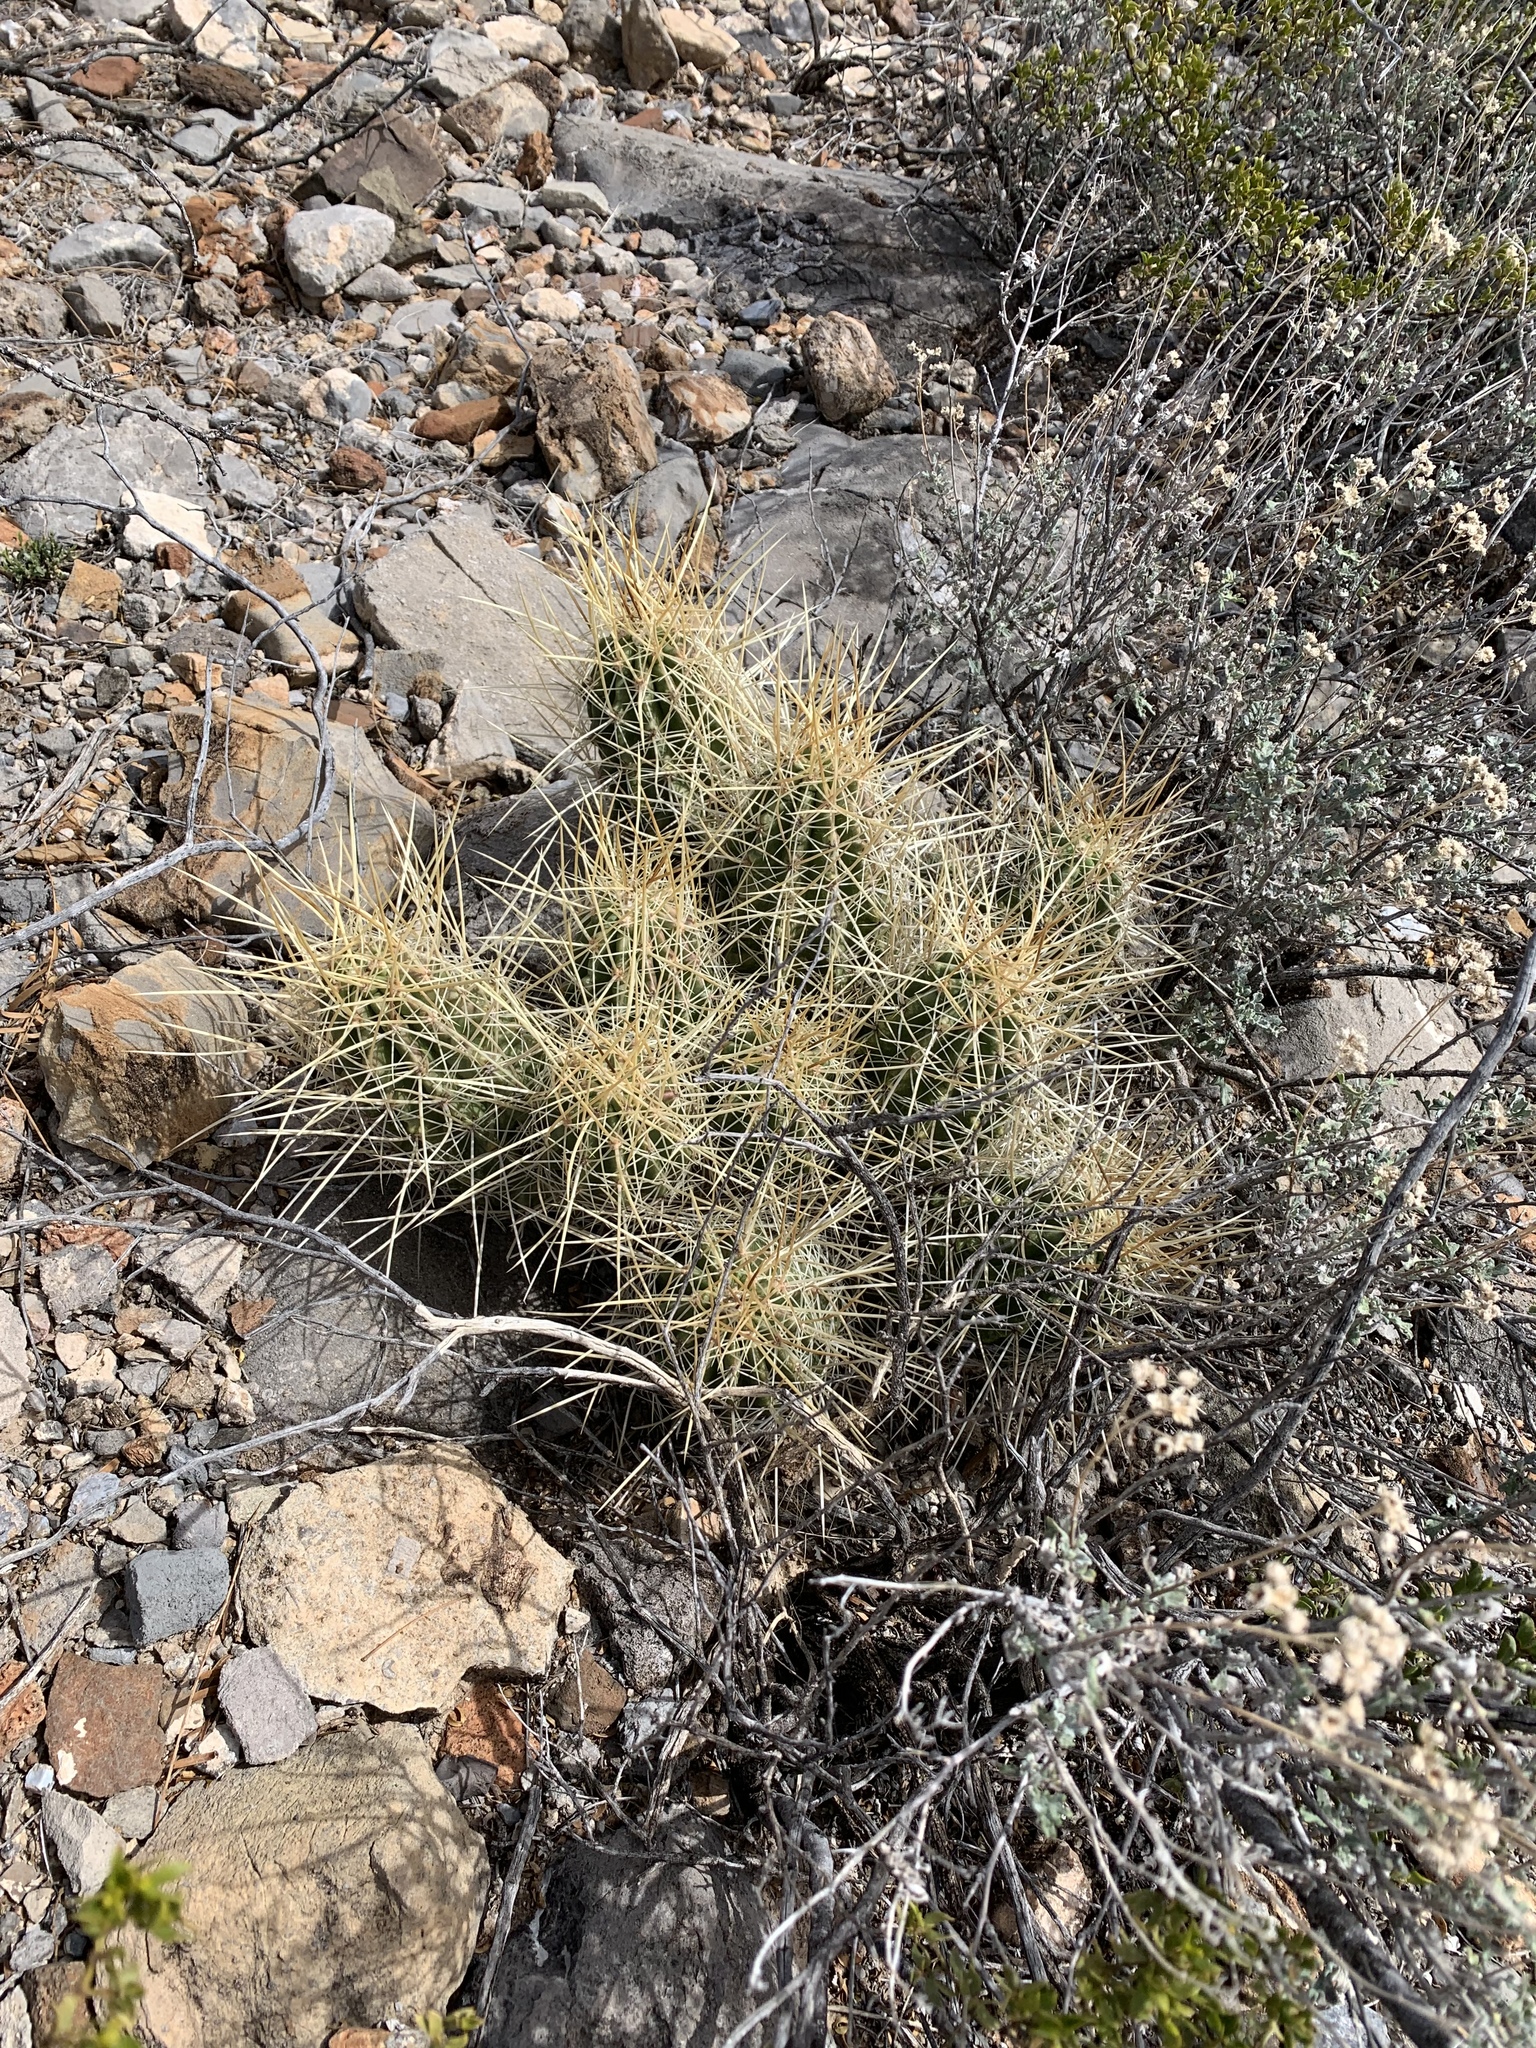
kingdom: Plantae
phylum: Tracheophyta
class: Magnoliopsida
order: Caryophyllales
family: Cactaceae
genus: Echinocereus
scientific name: Echinocereus stramineus
